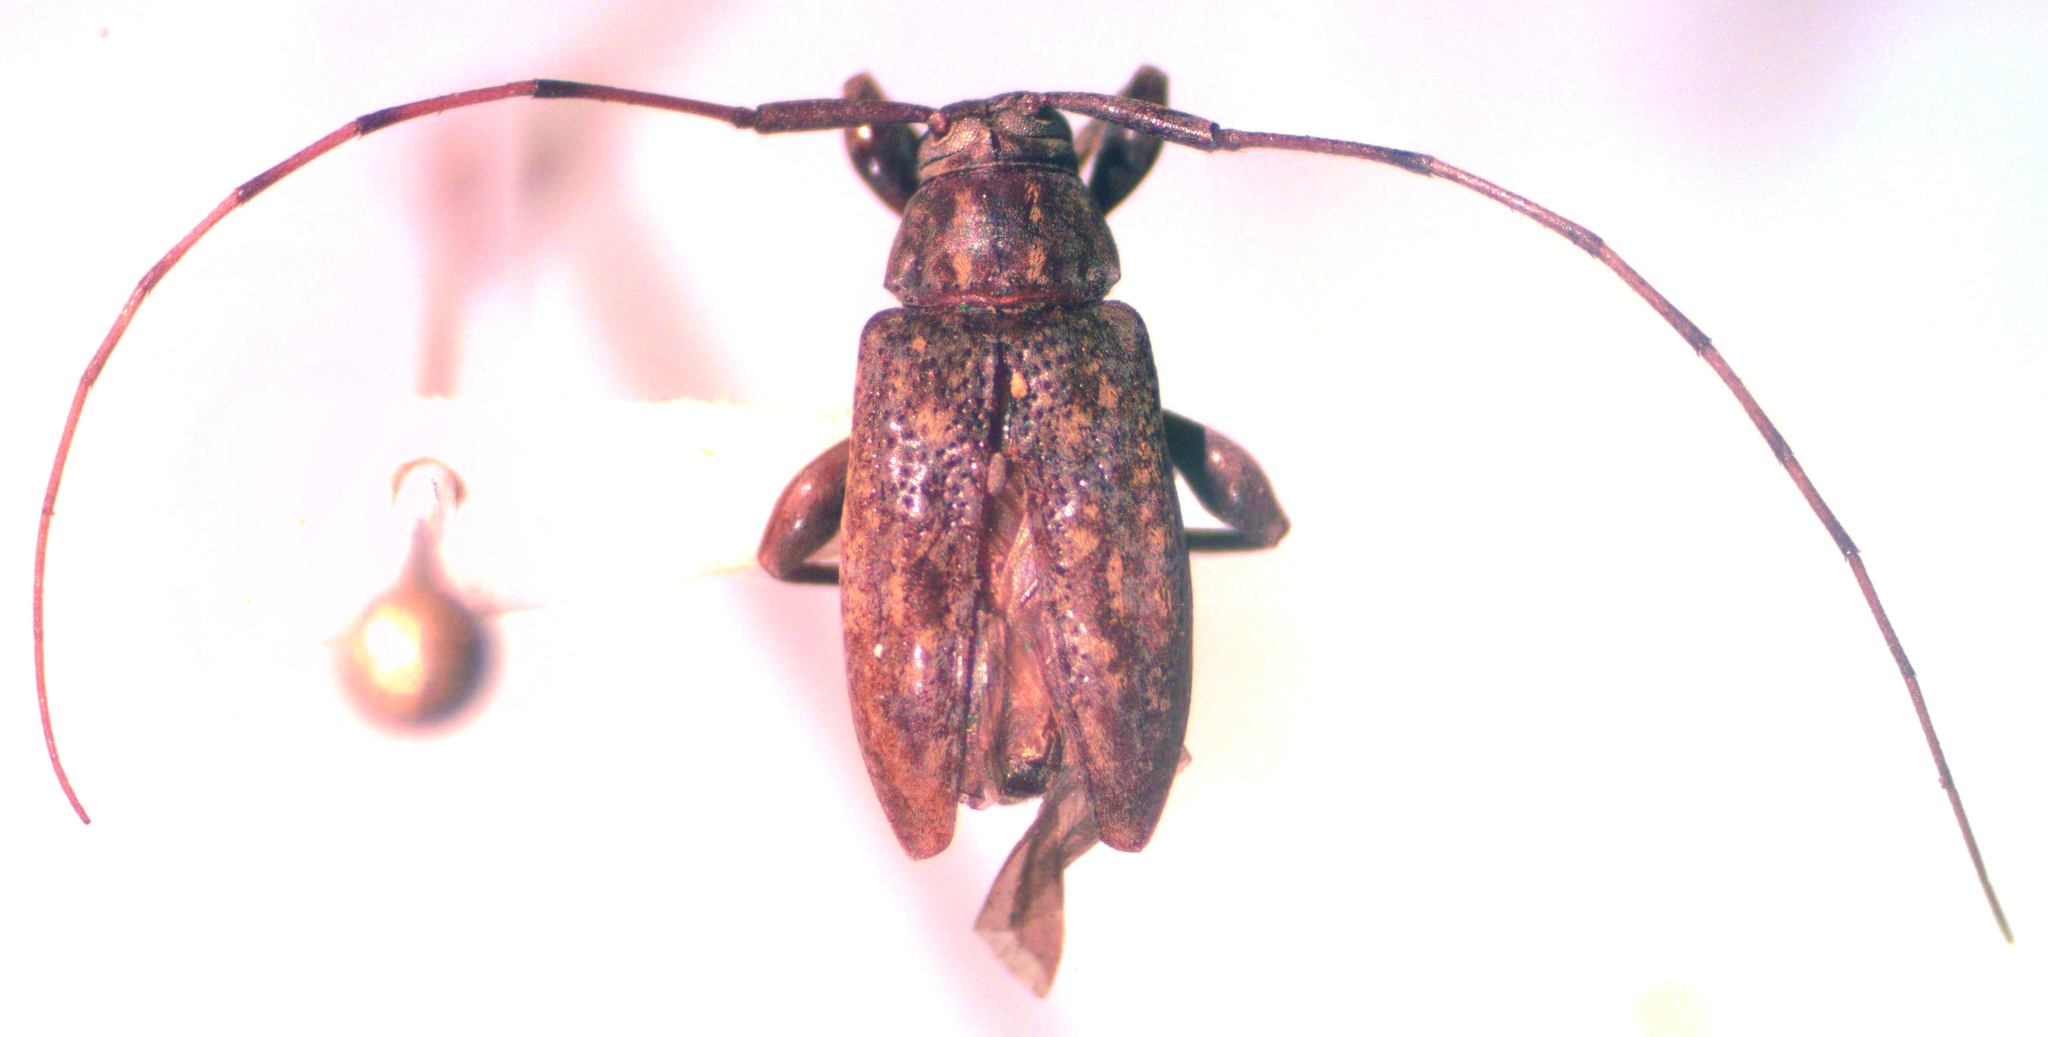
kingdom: Animalia
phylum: Arthropoda
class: Insecta
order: Coleoptera
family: Cerambycidae
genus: Atrypanius
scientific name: Atrypanius haldemani
